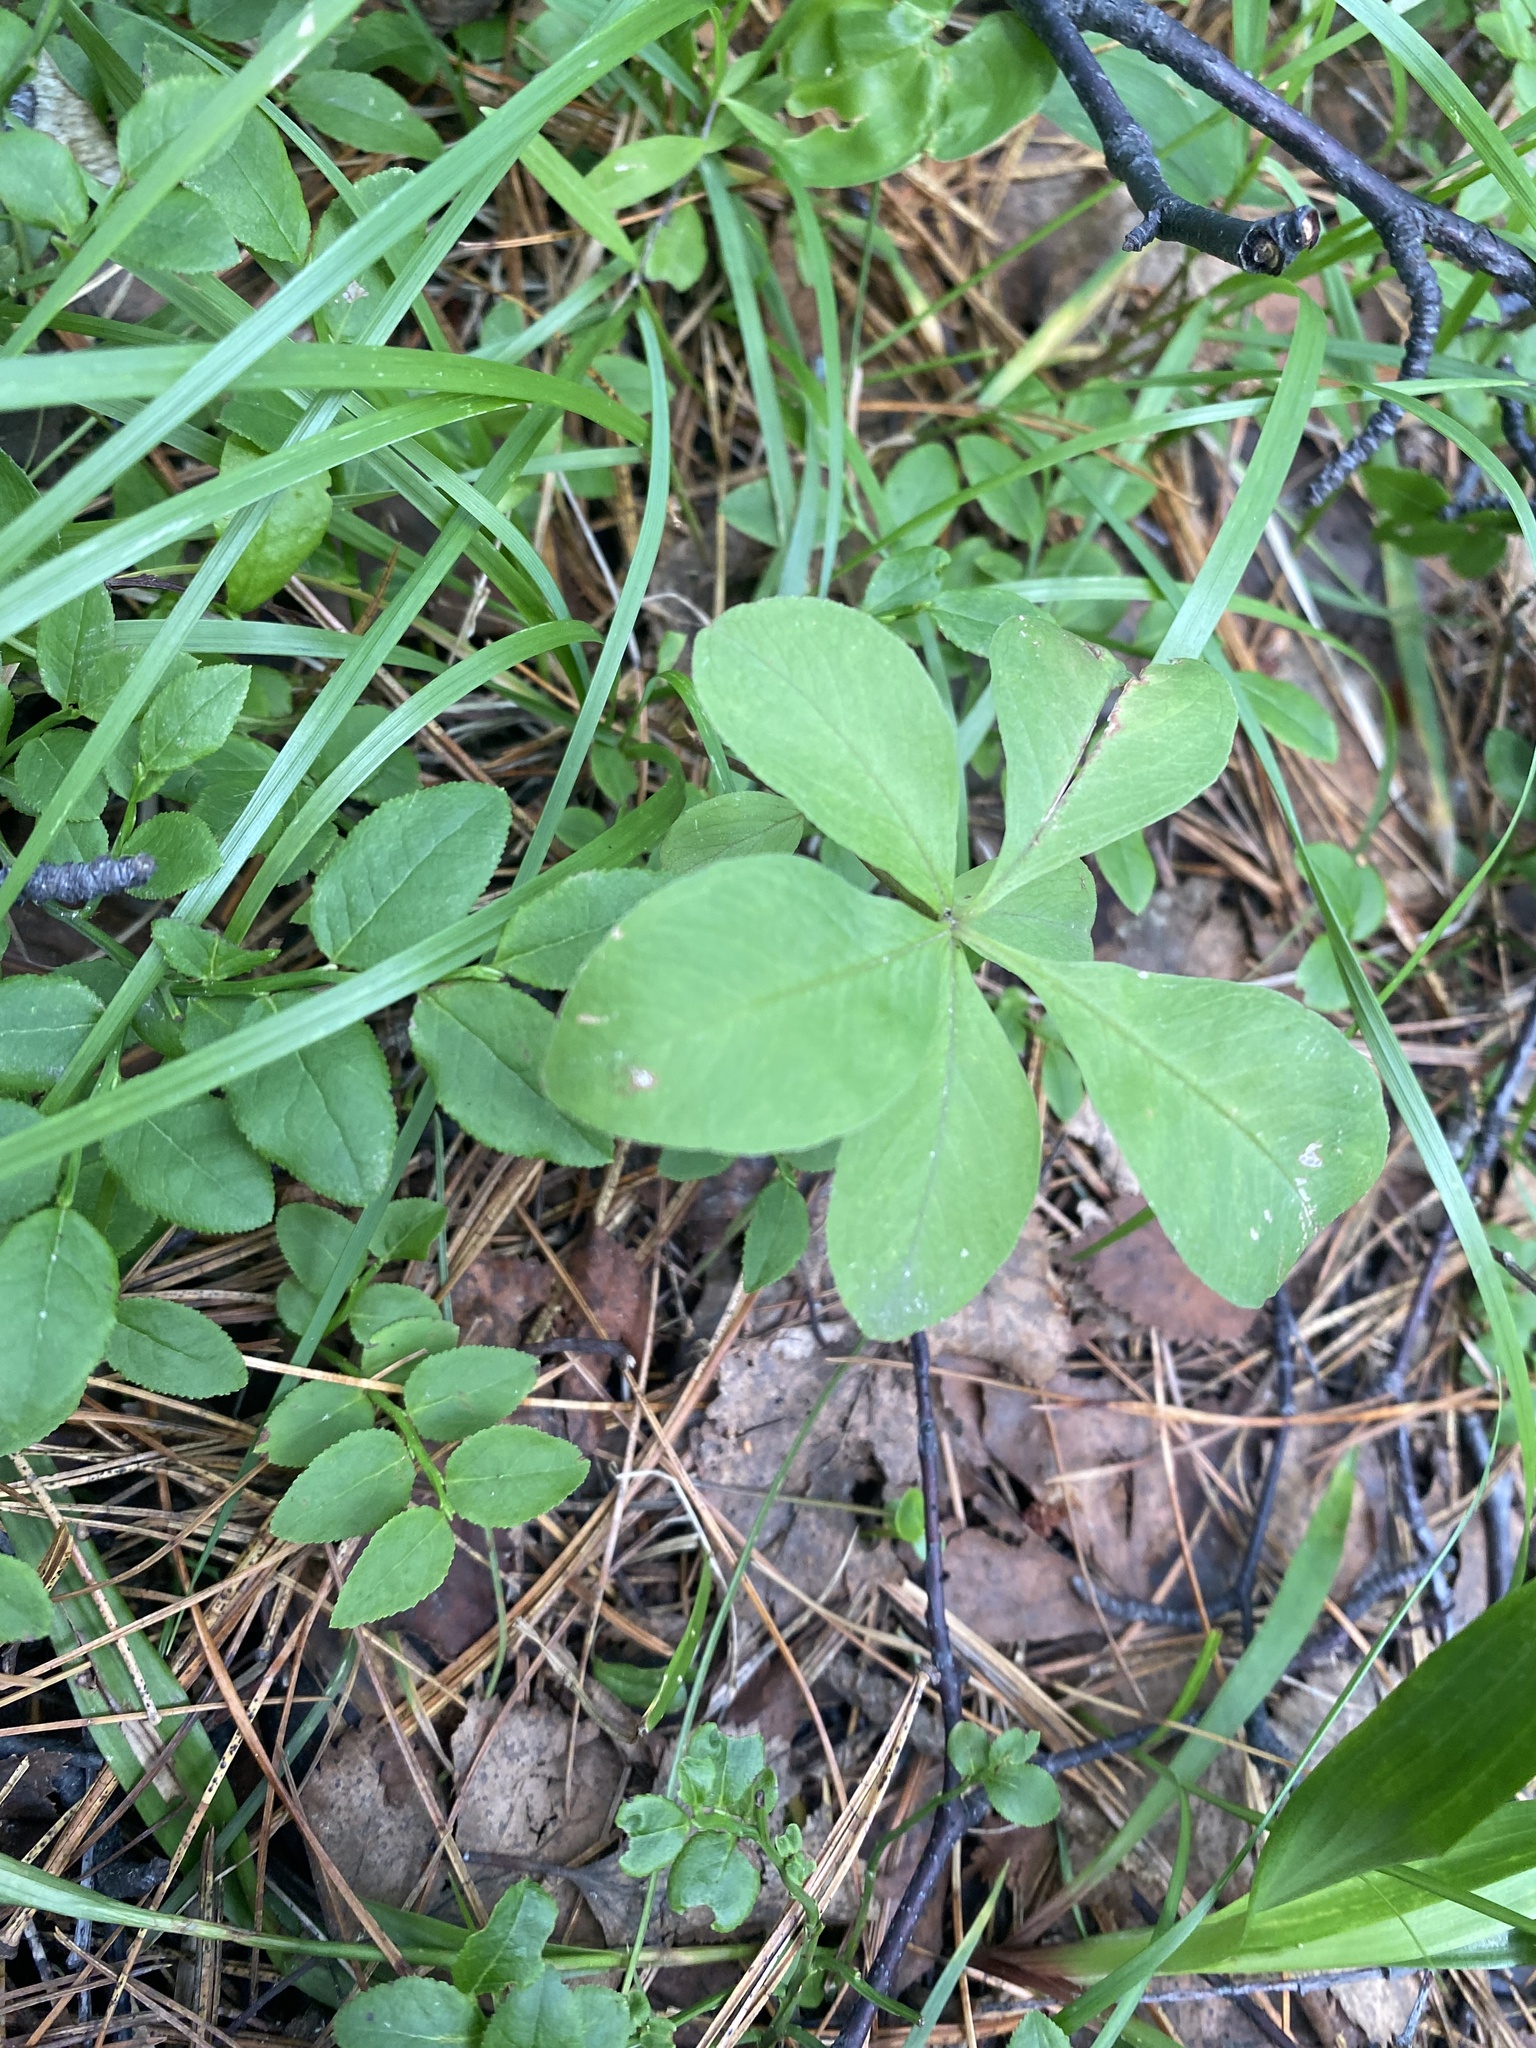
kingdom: Plantae
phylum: Tracheophyta
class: Magnoliopsida
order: Ericales
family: Primulaceae
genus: Lysimachia
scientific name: Lysimachia europaea
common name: Arctic starflower
